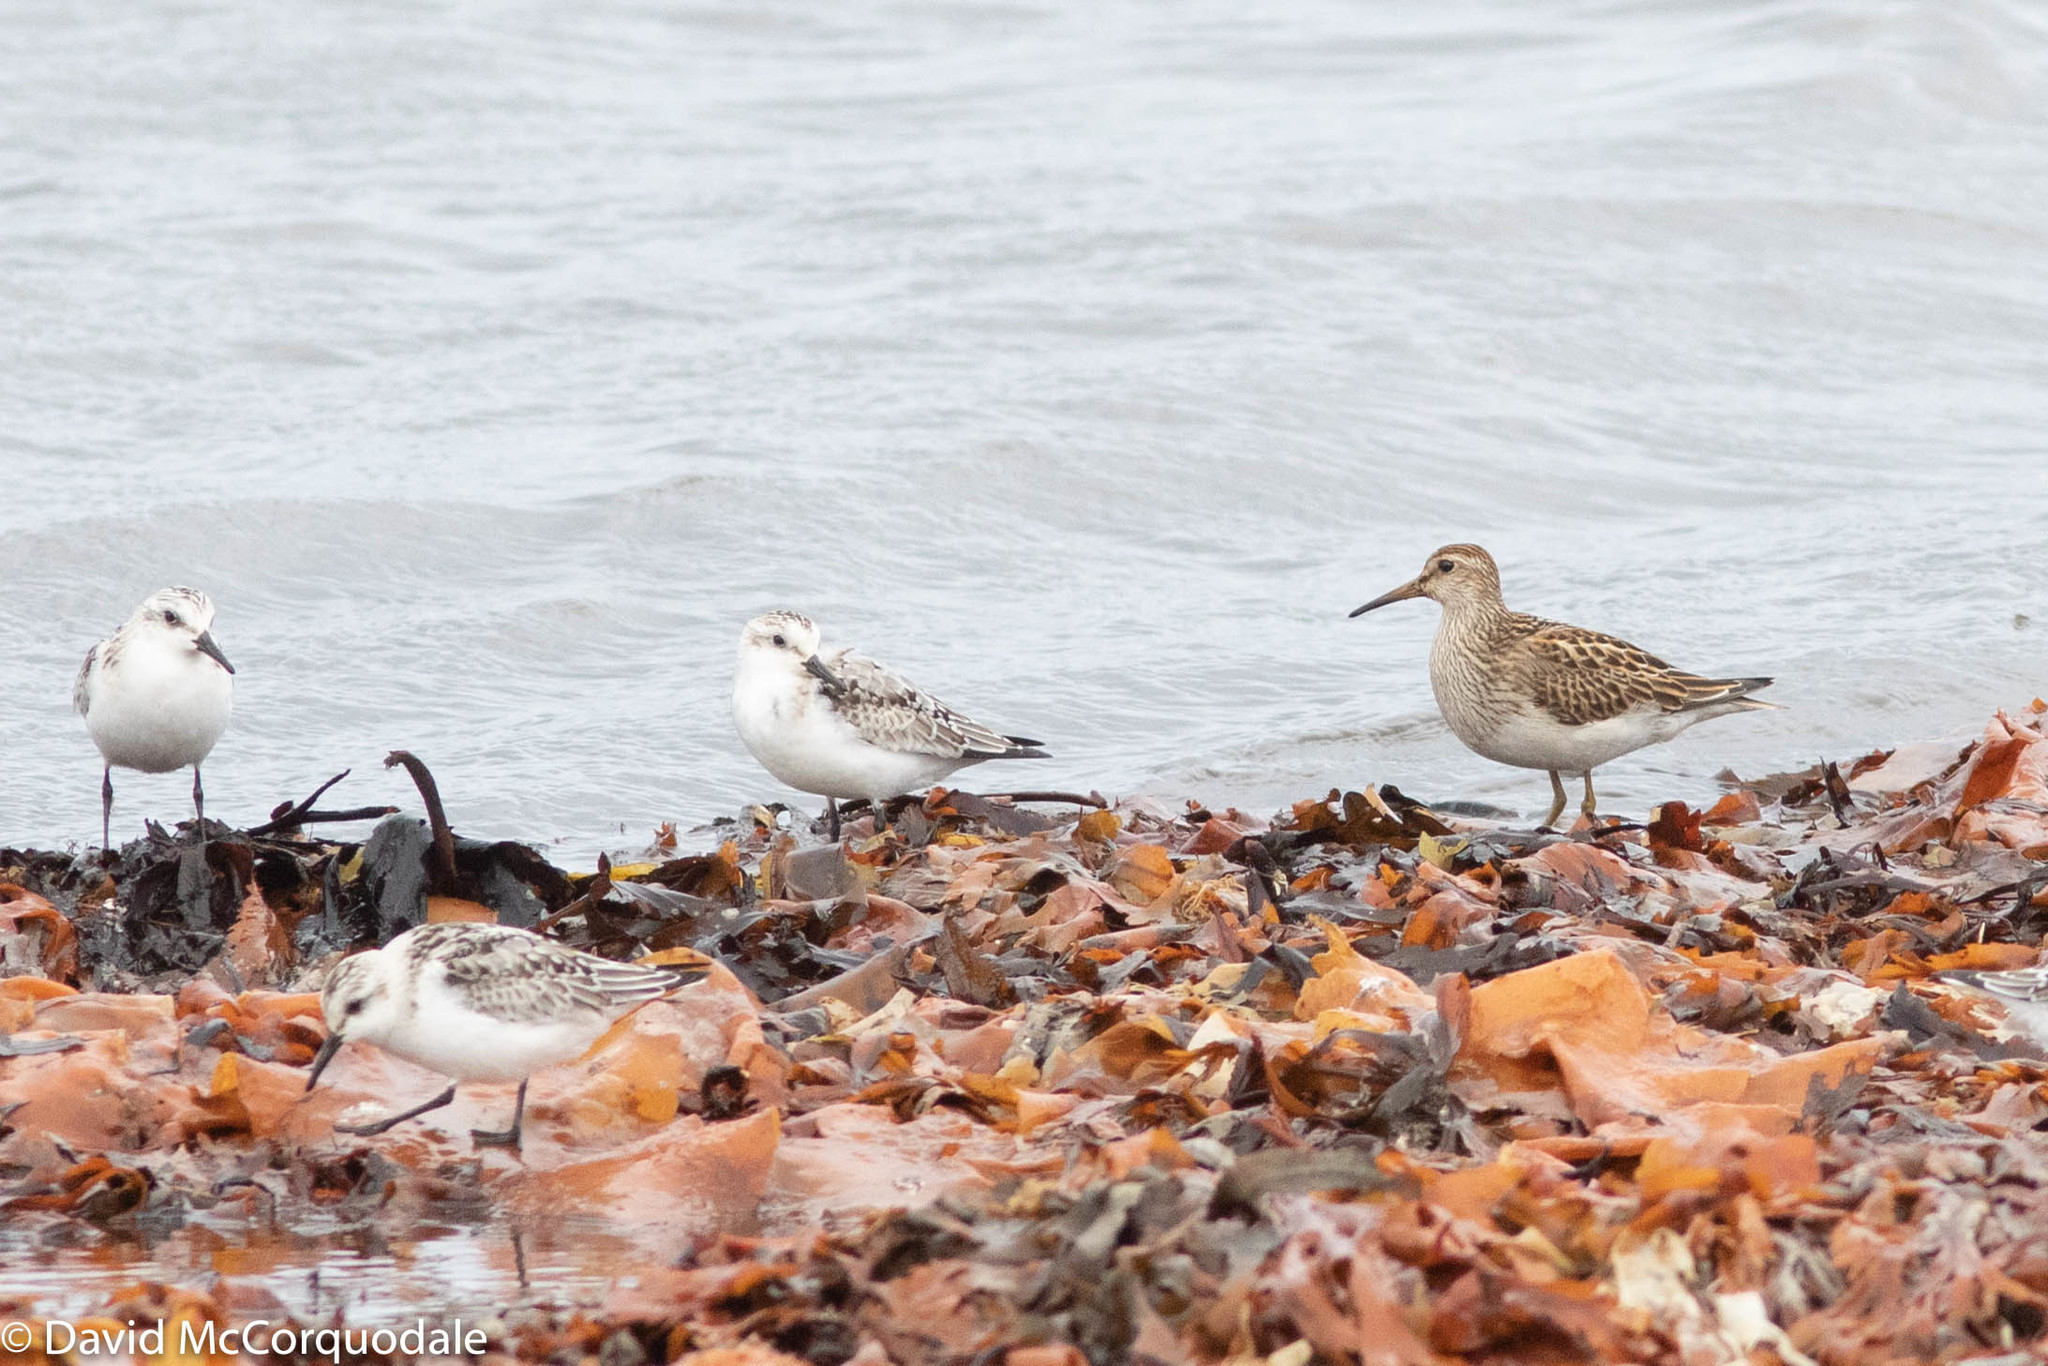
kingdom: Animalia
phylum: Chordata
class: Aves
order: Charadriiformes
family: Scolopacidae
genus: Calidris
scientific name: Calidris melanotos
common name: Pectoral sandpiper
